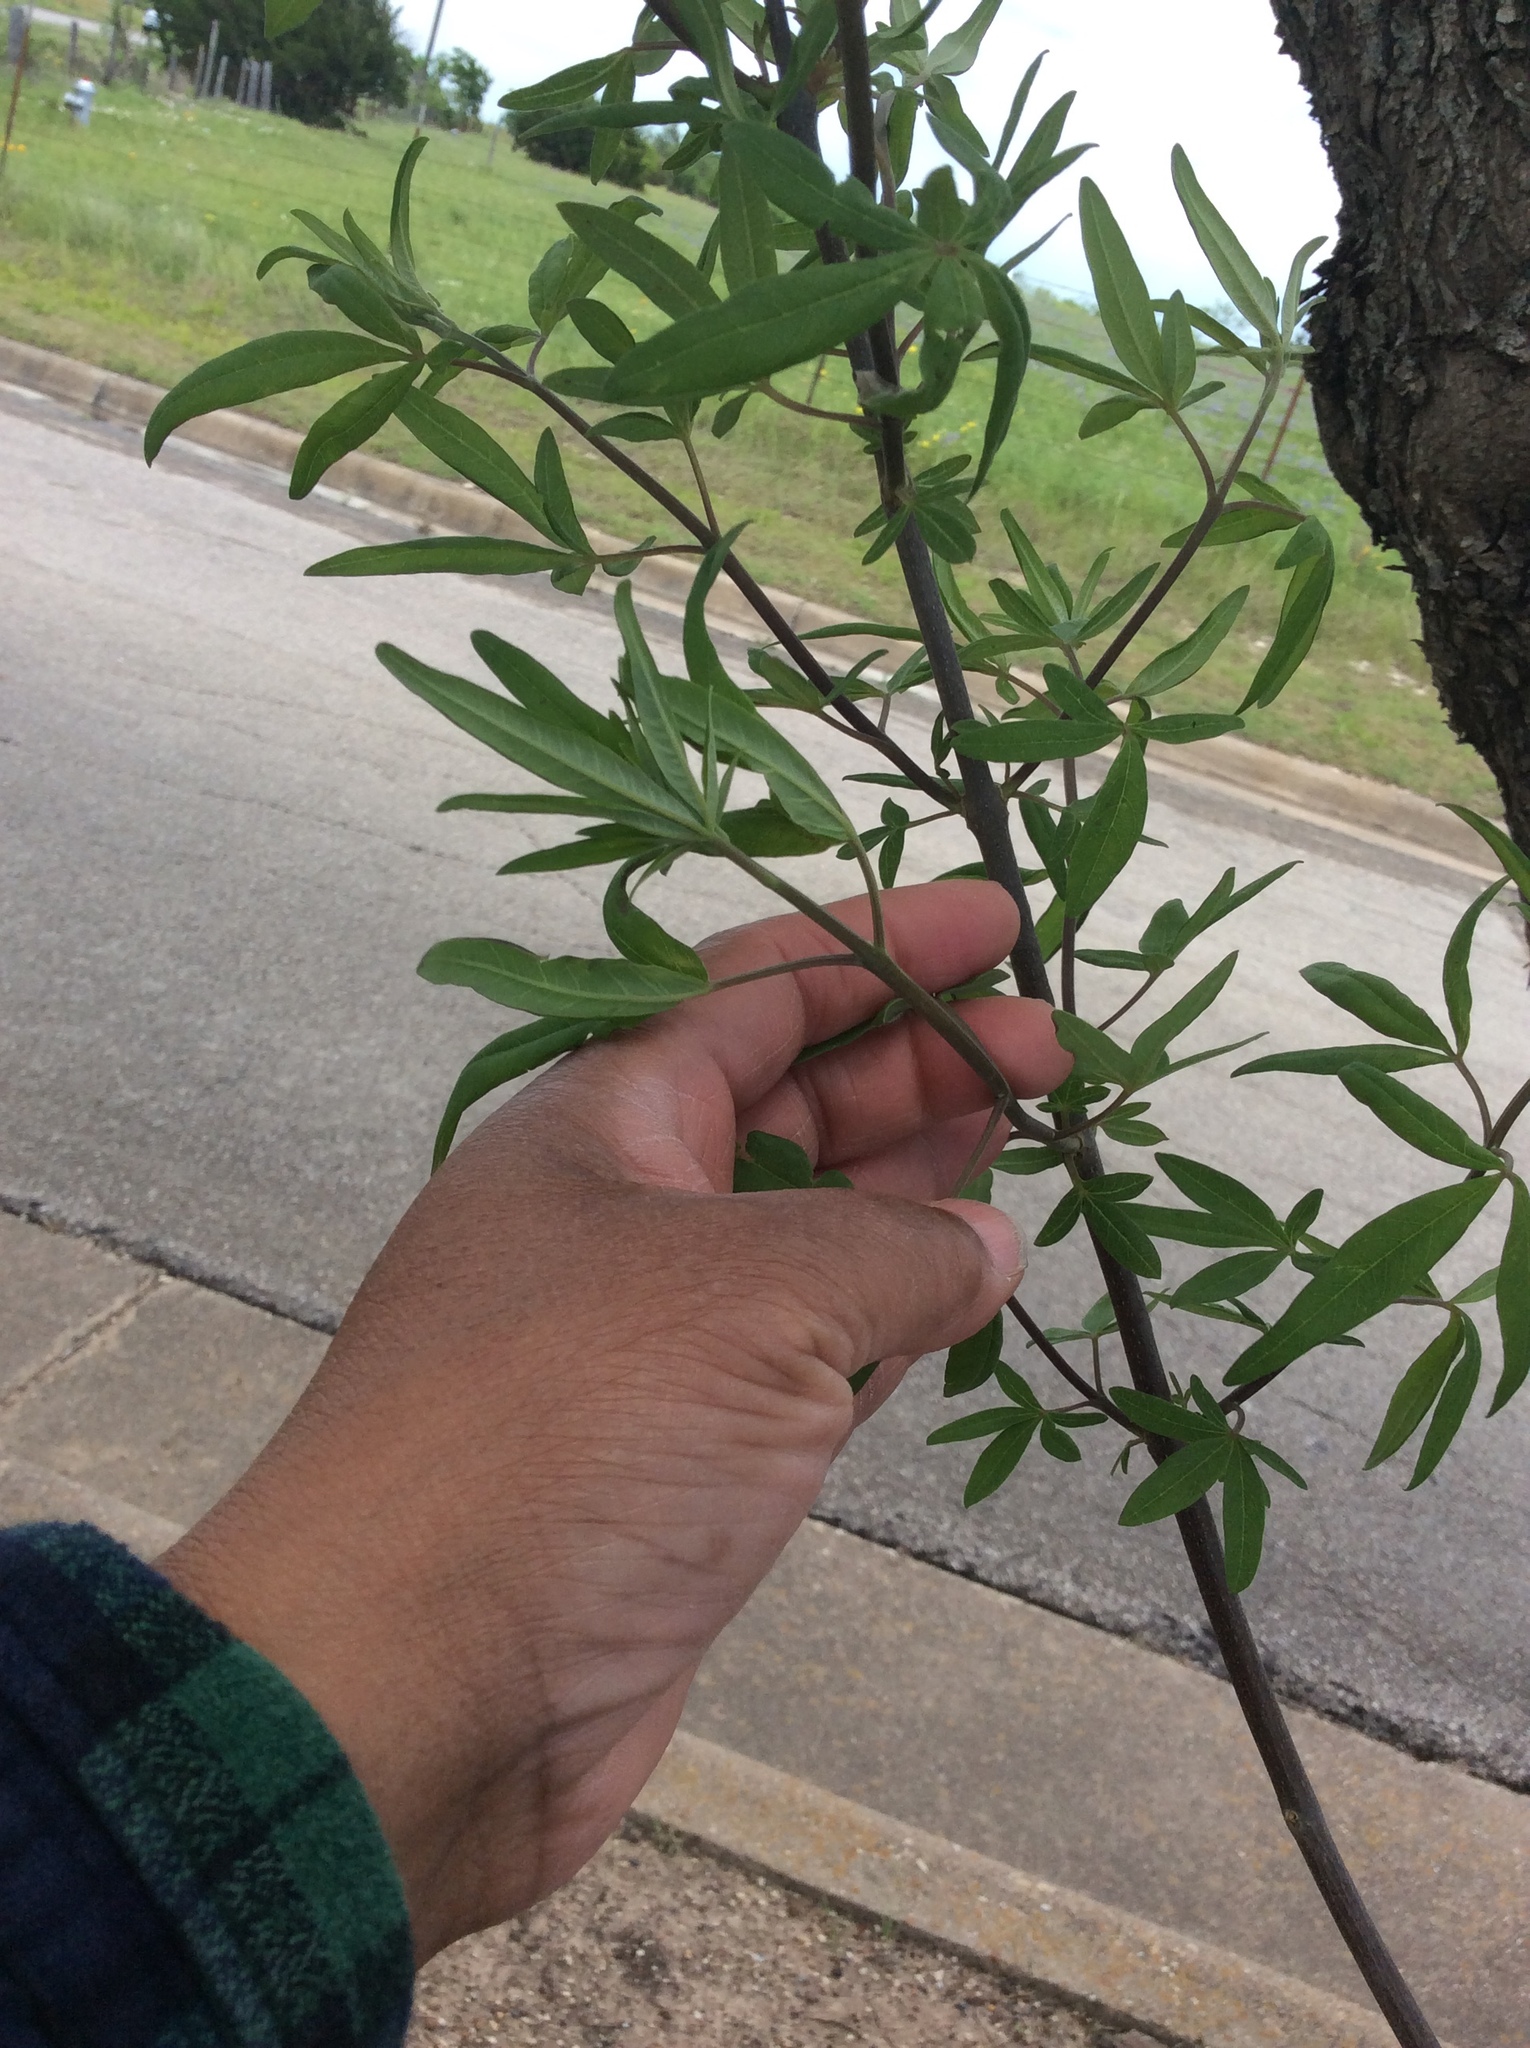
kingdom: Plantae
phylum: Tracheophyta
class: Magnoliopsida
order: Lamiales
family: Lamiaceae
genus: Vitex
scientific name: Vitex agnus-castus
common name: Chasteberry
